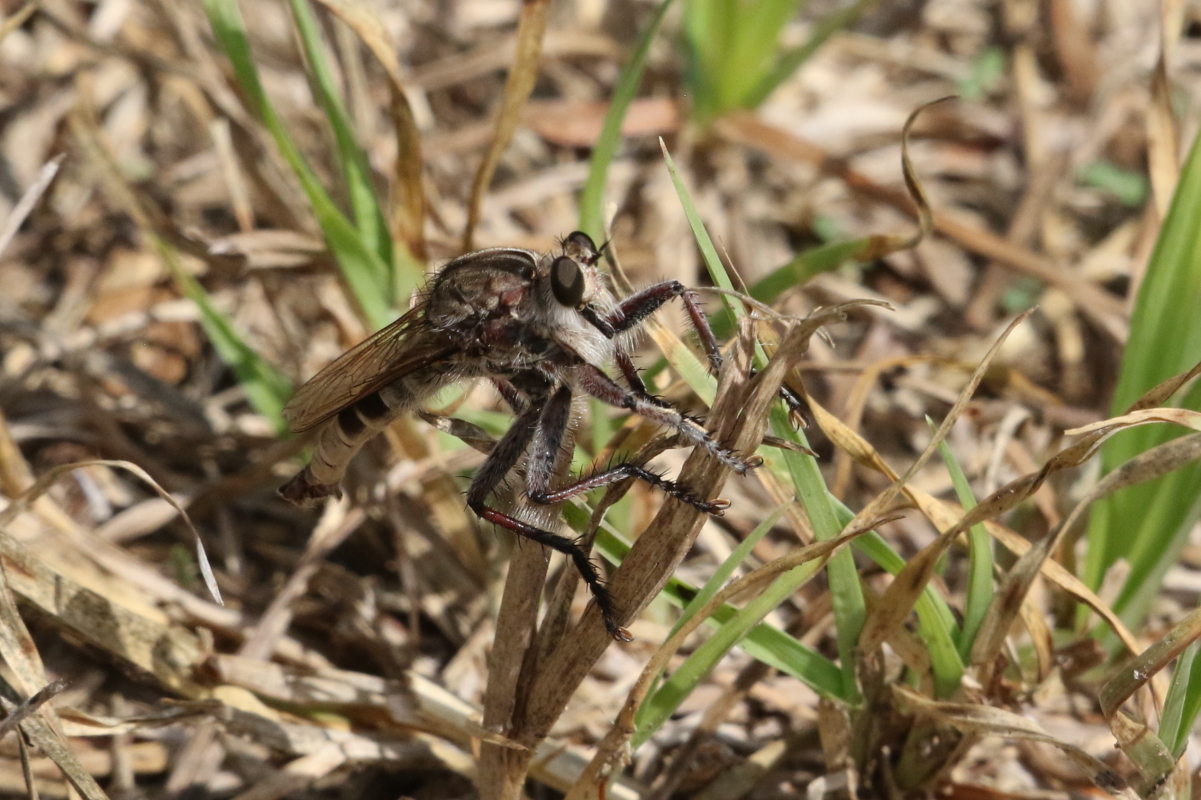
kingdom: Animalia
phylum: Arthropoda
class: Insecta
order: Diptera
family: Asilidae
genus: Triorla
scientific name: Triorla interrupta
